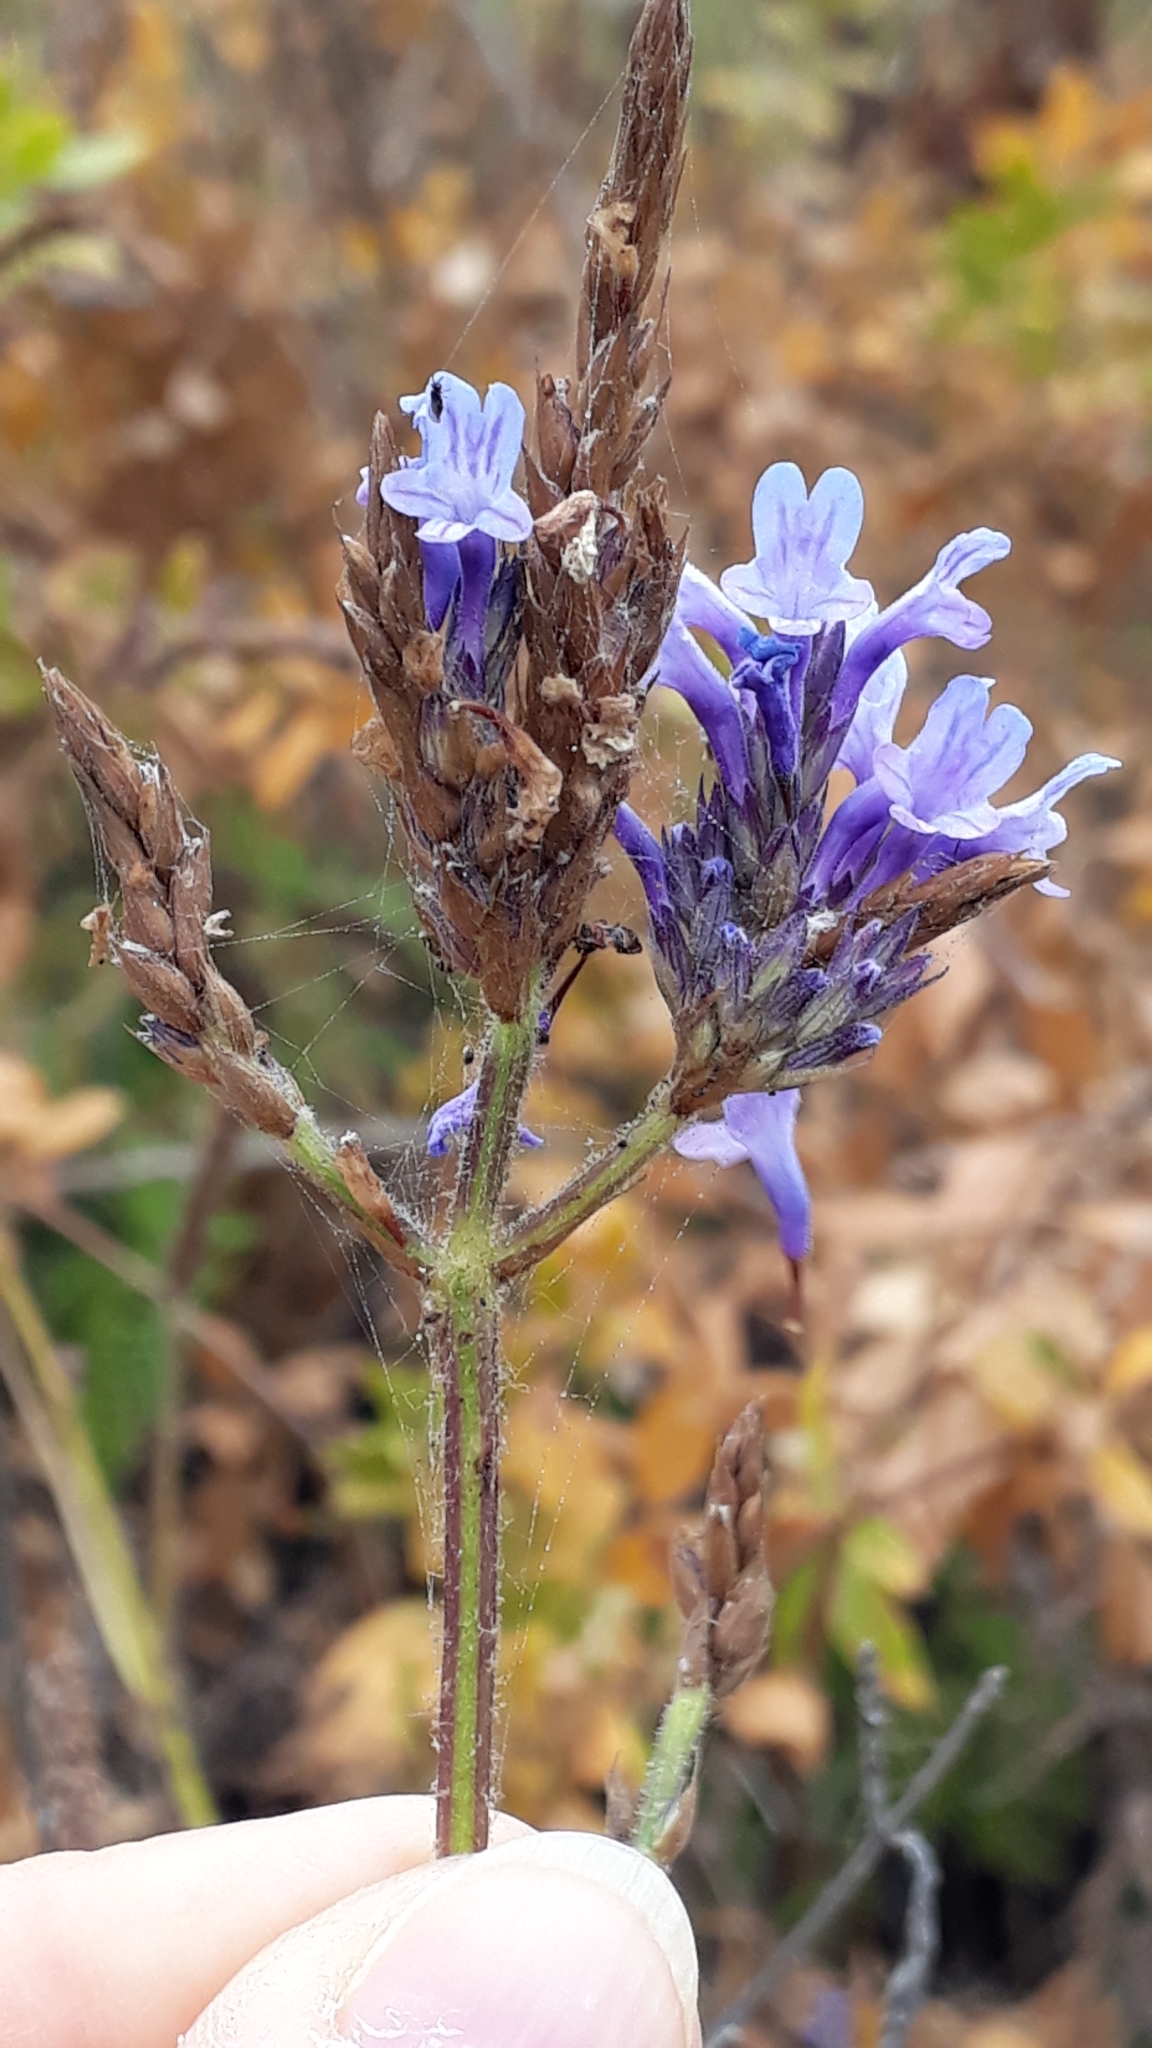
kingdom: Plantae
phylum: Tracheophyta
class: Magnoliopsida
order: Lamiales
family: Lamiaceae
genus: Lavandula
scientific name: Lavandula canariensis
